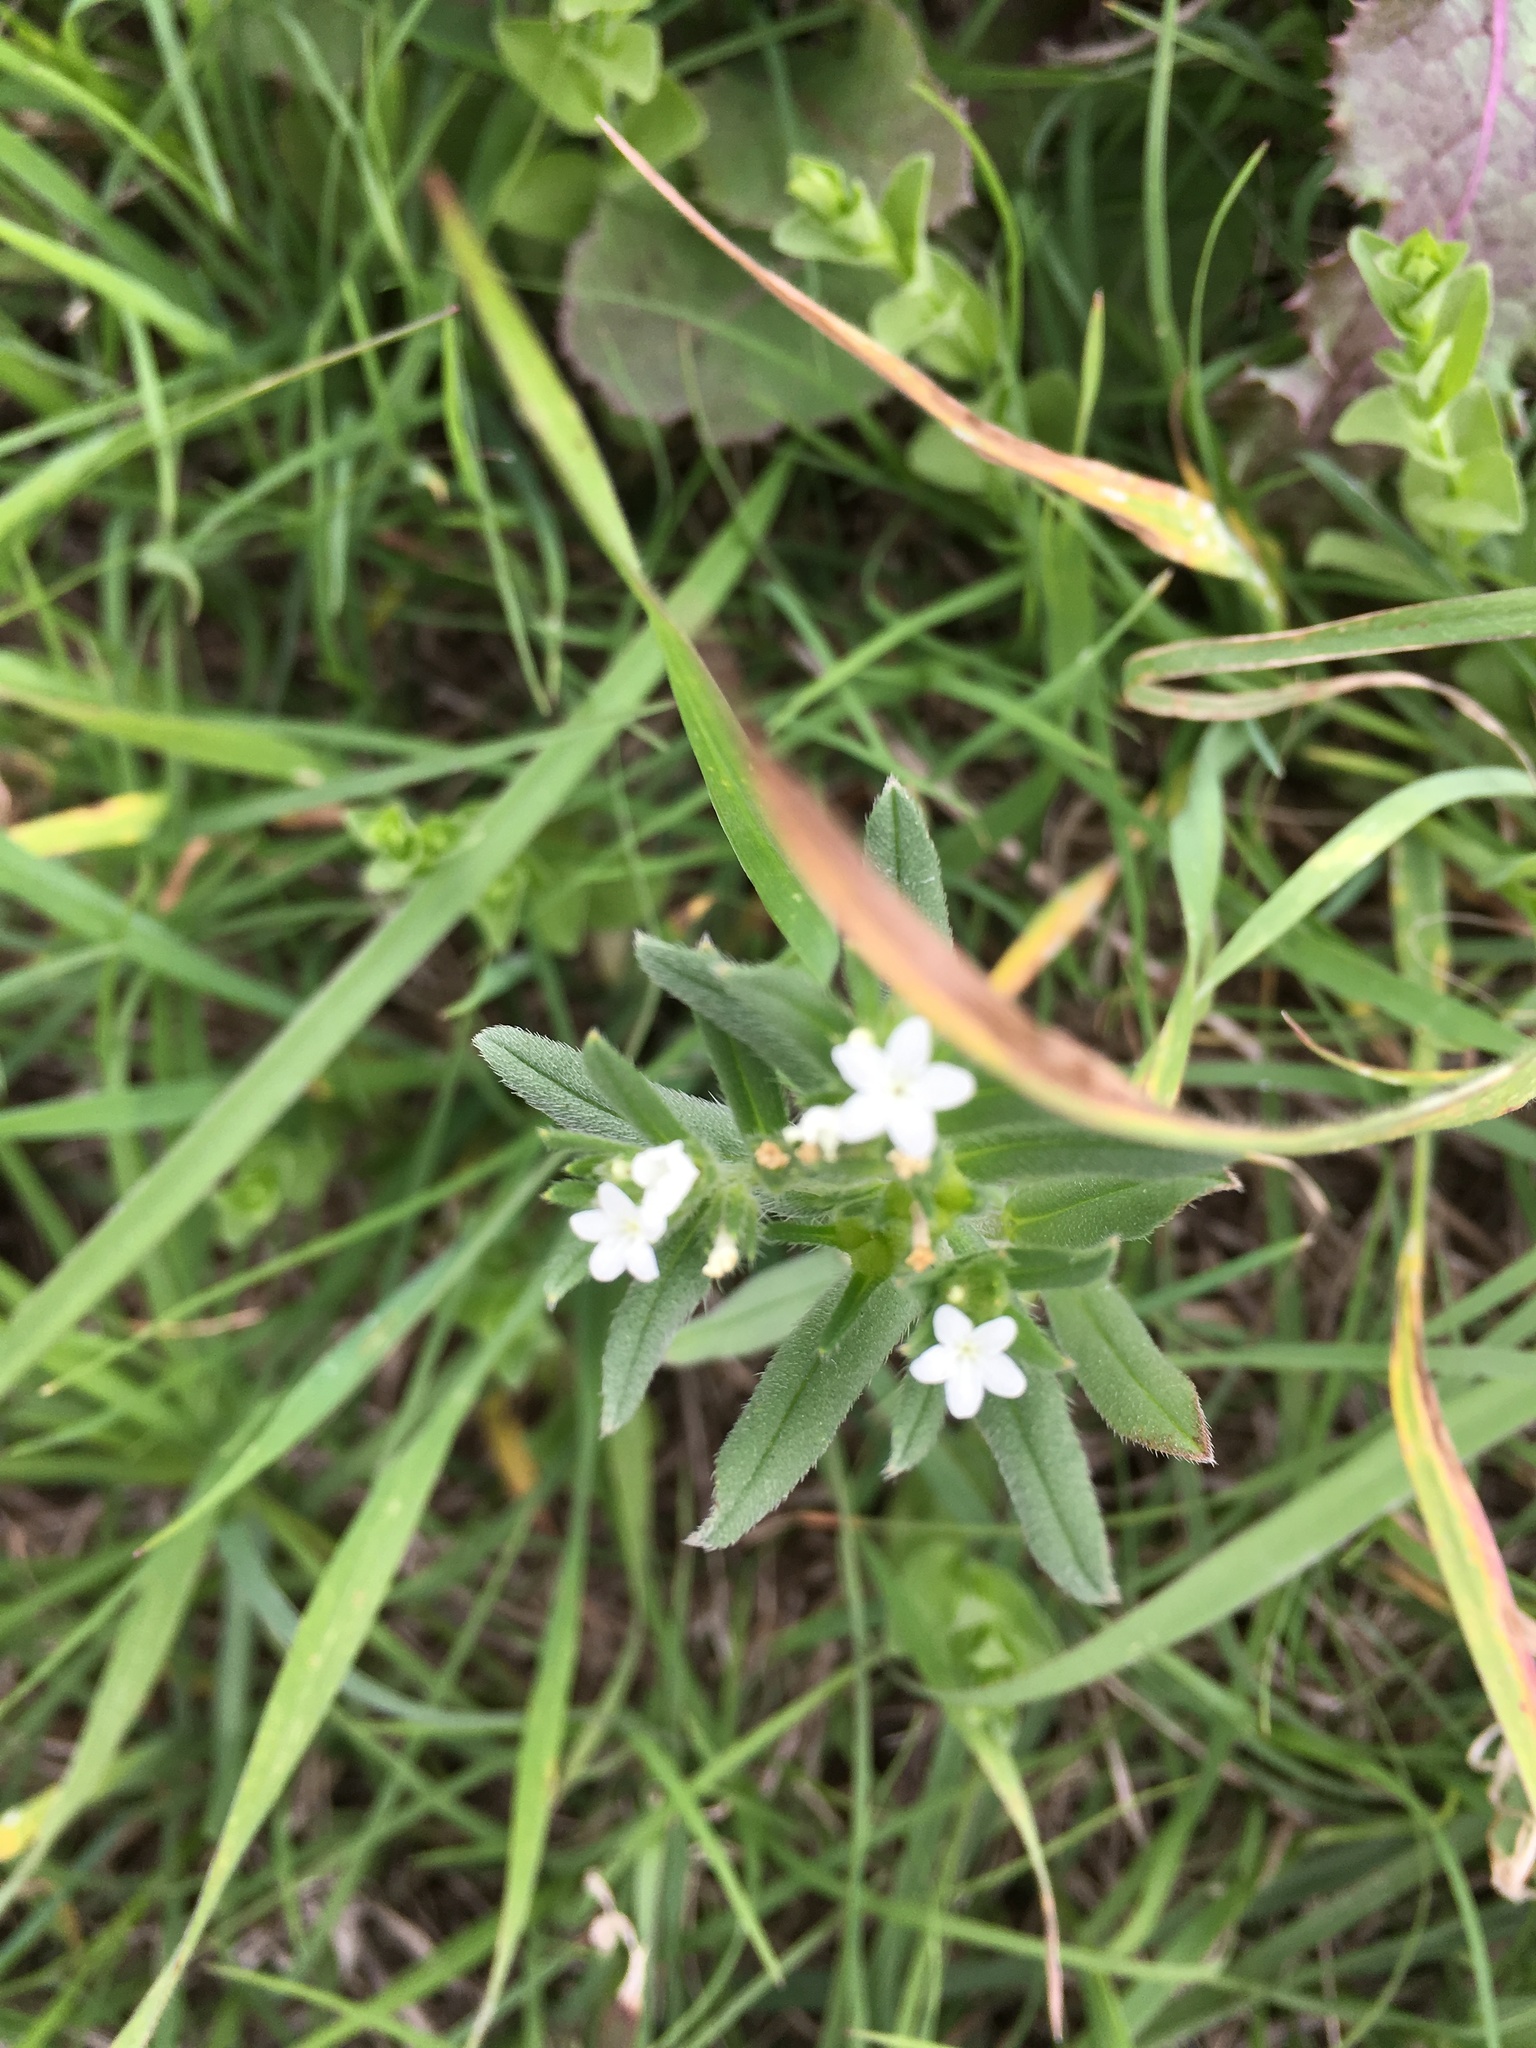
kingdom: Plantae
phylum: Tracheophyta
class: Magnoliopsida
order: Boraginales
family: Boraginaceae
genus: Buglossoides
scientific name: Buglossoides arvensis
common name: Corn gromwell
